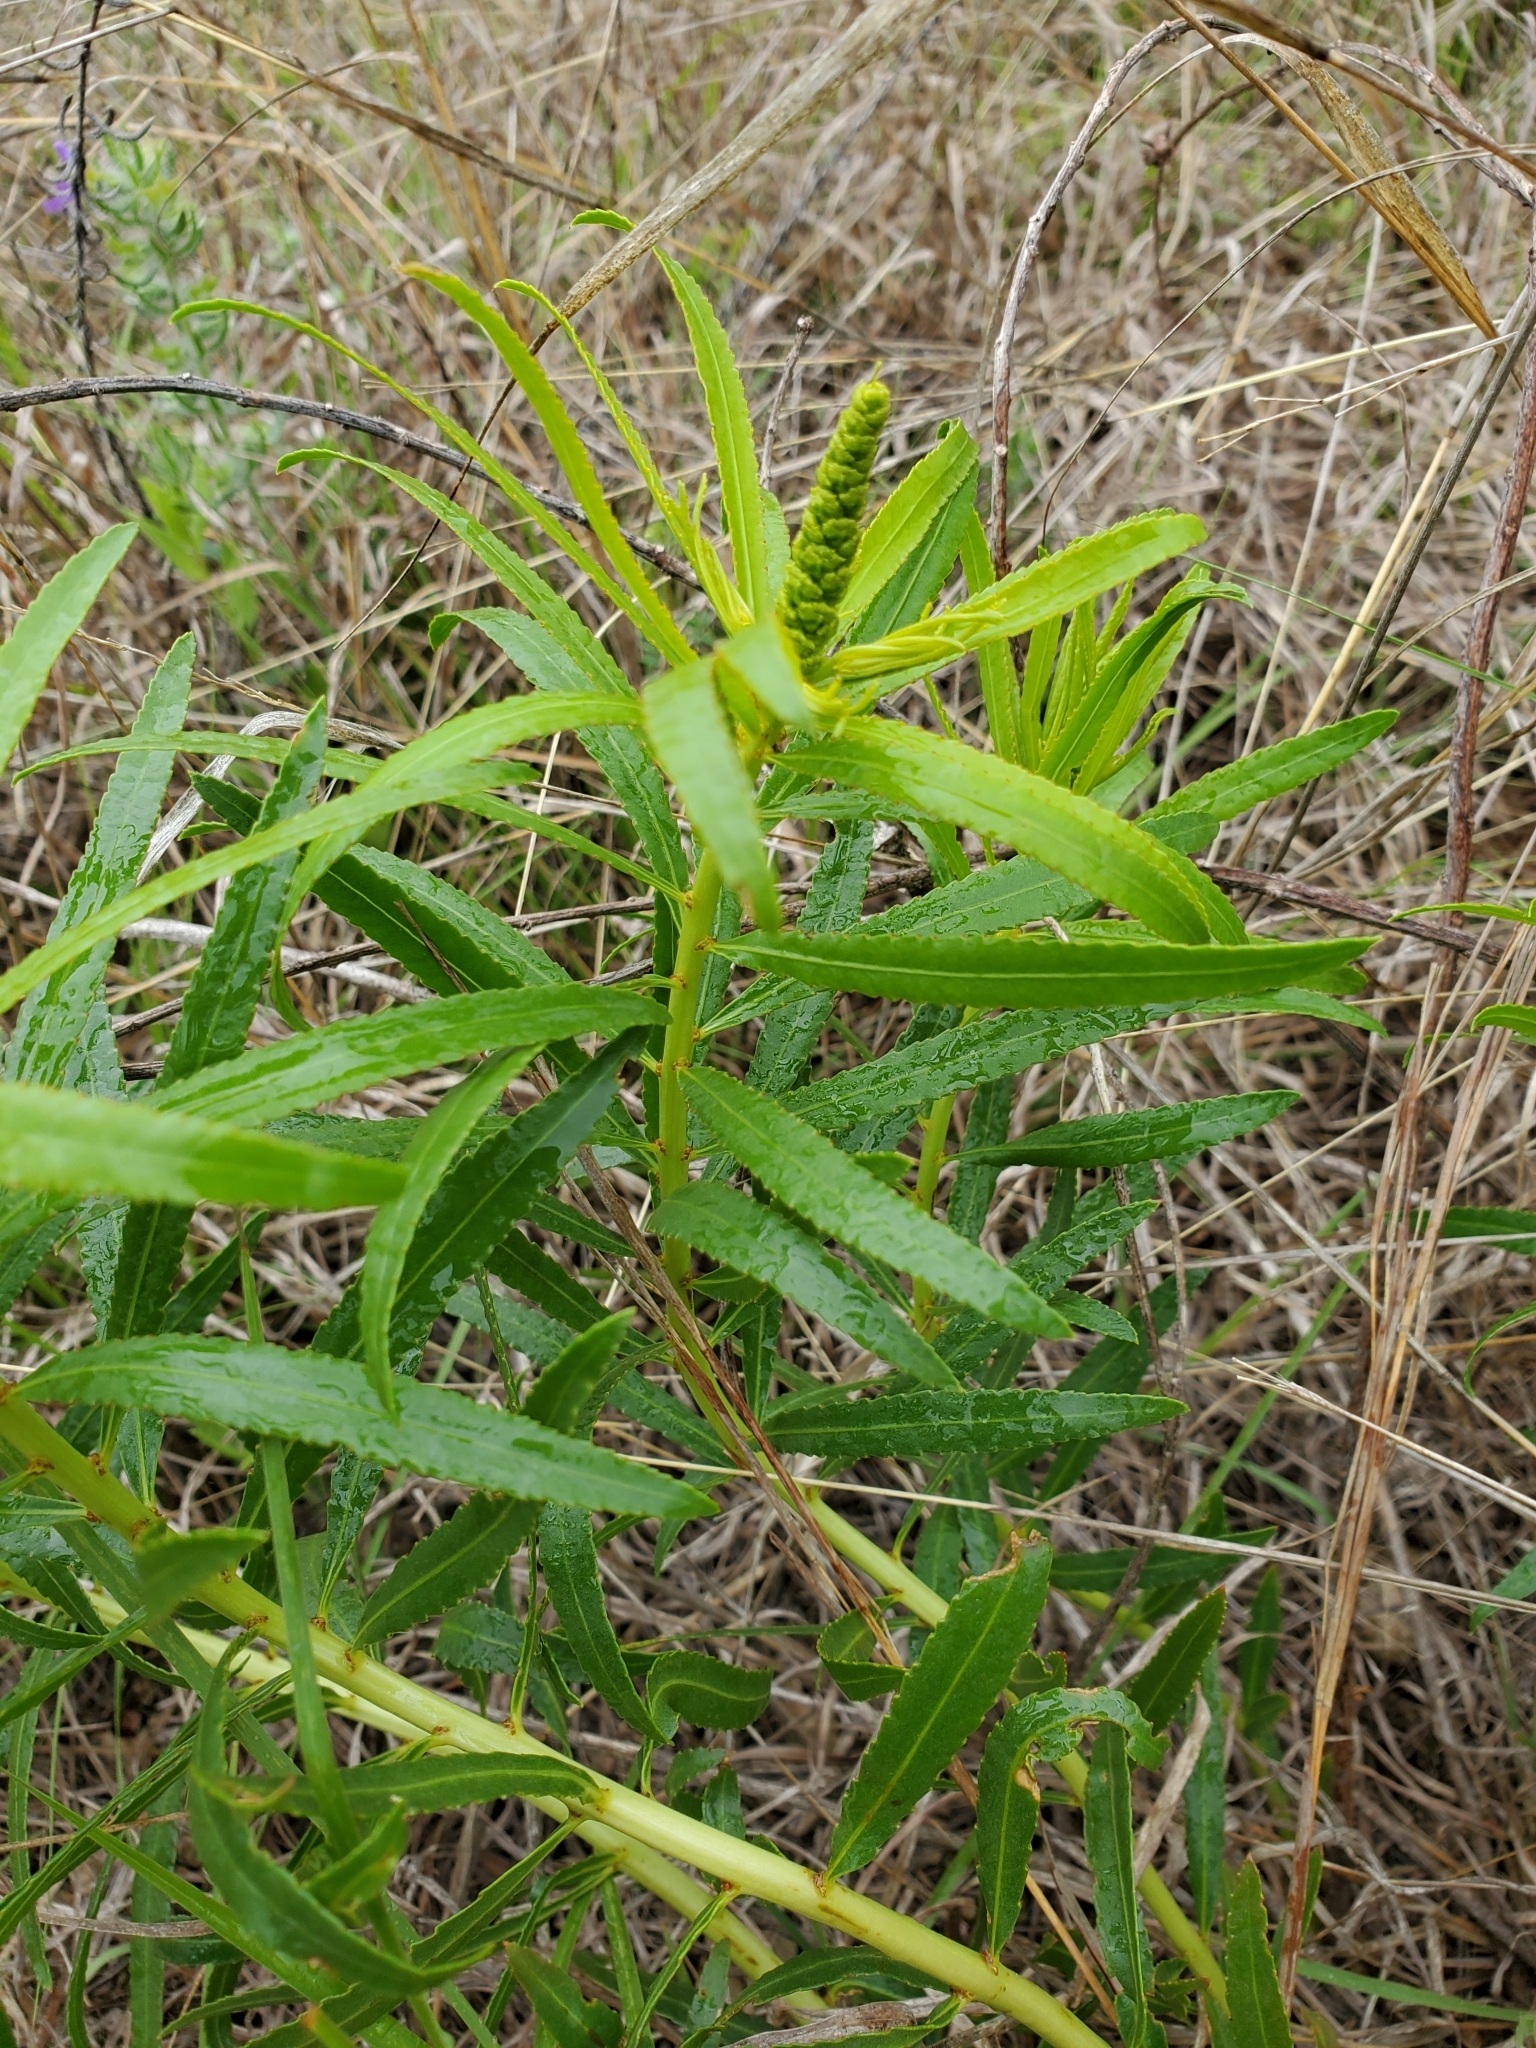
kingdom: Plantae
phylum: Tracheophyta
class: Magnoliopsida
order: Malpighiales
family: Euphorbiaceae
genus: Stillingia
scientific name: Stillingia texana
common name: Texas stillingia
